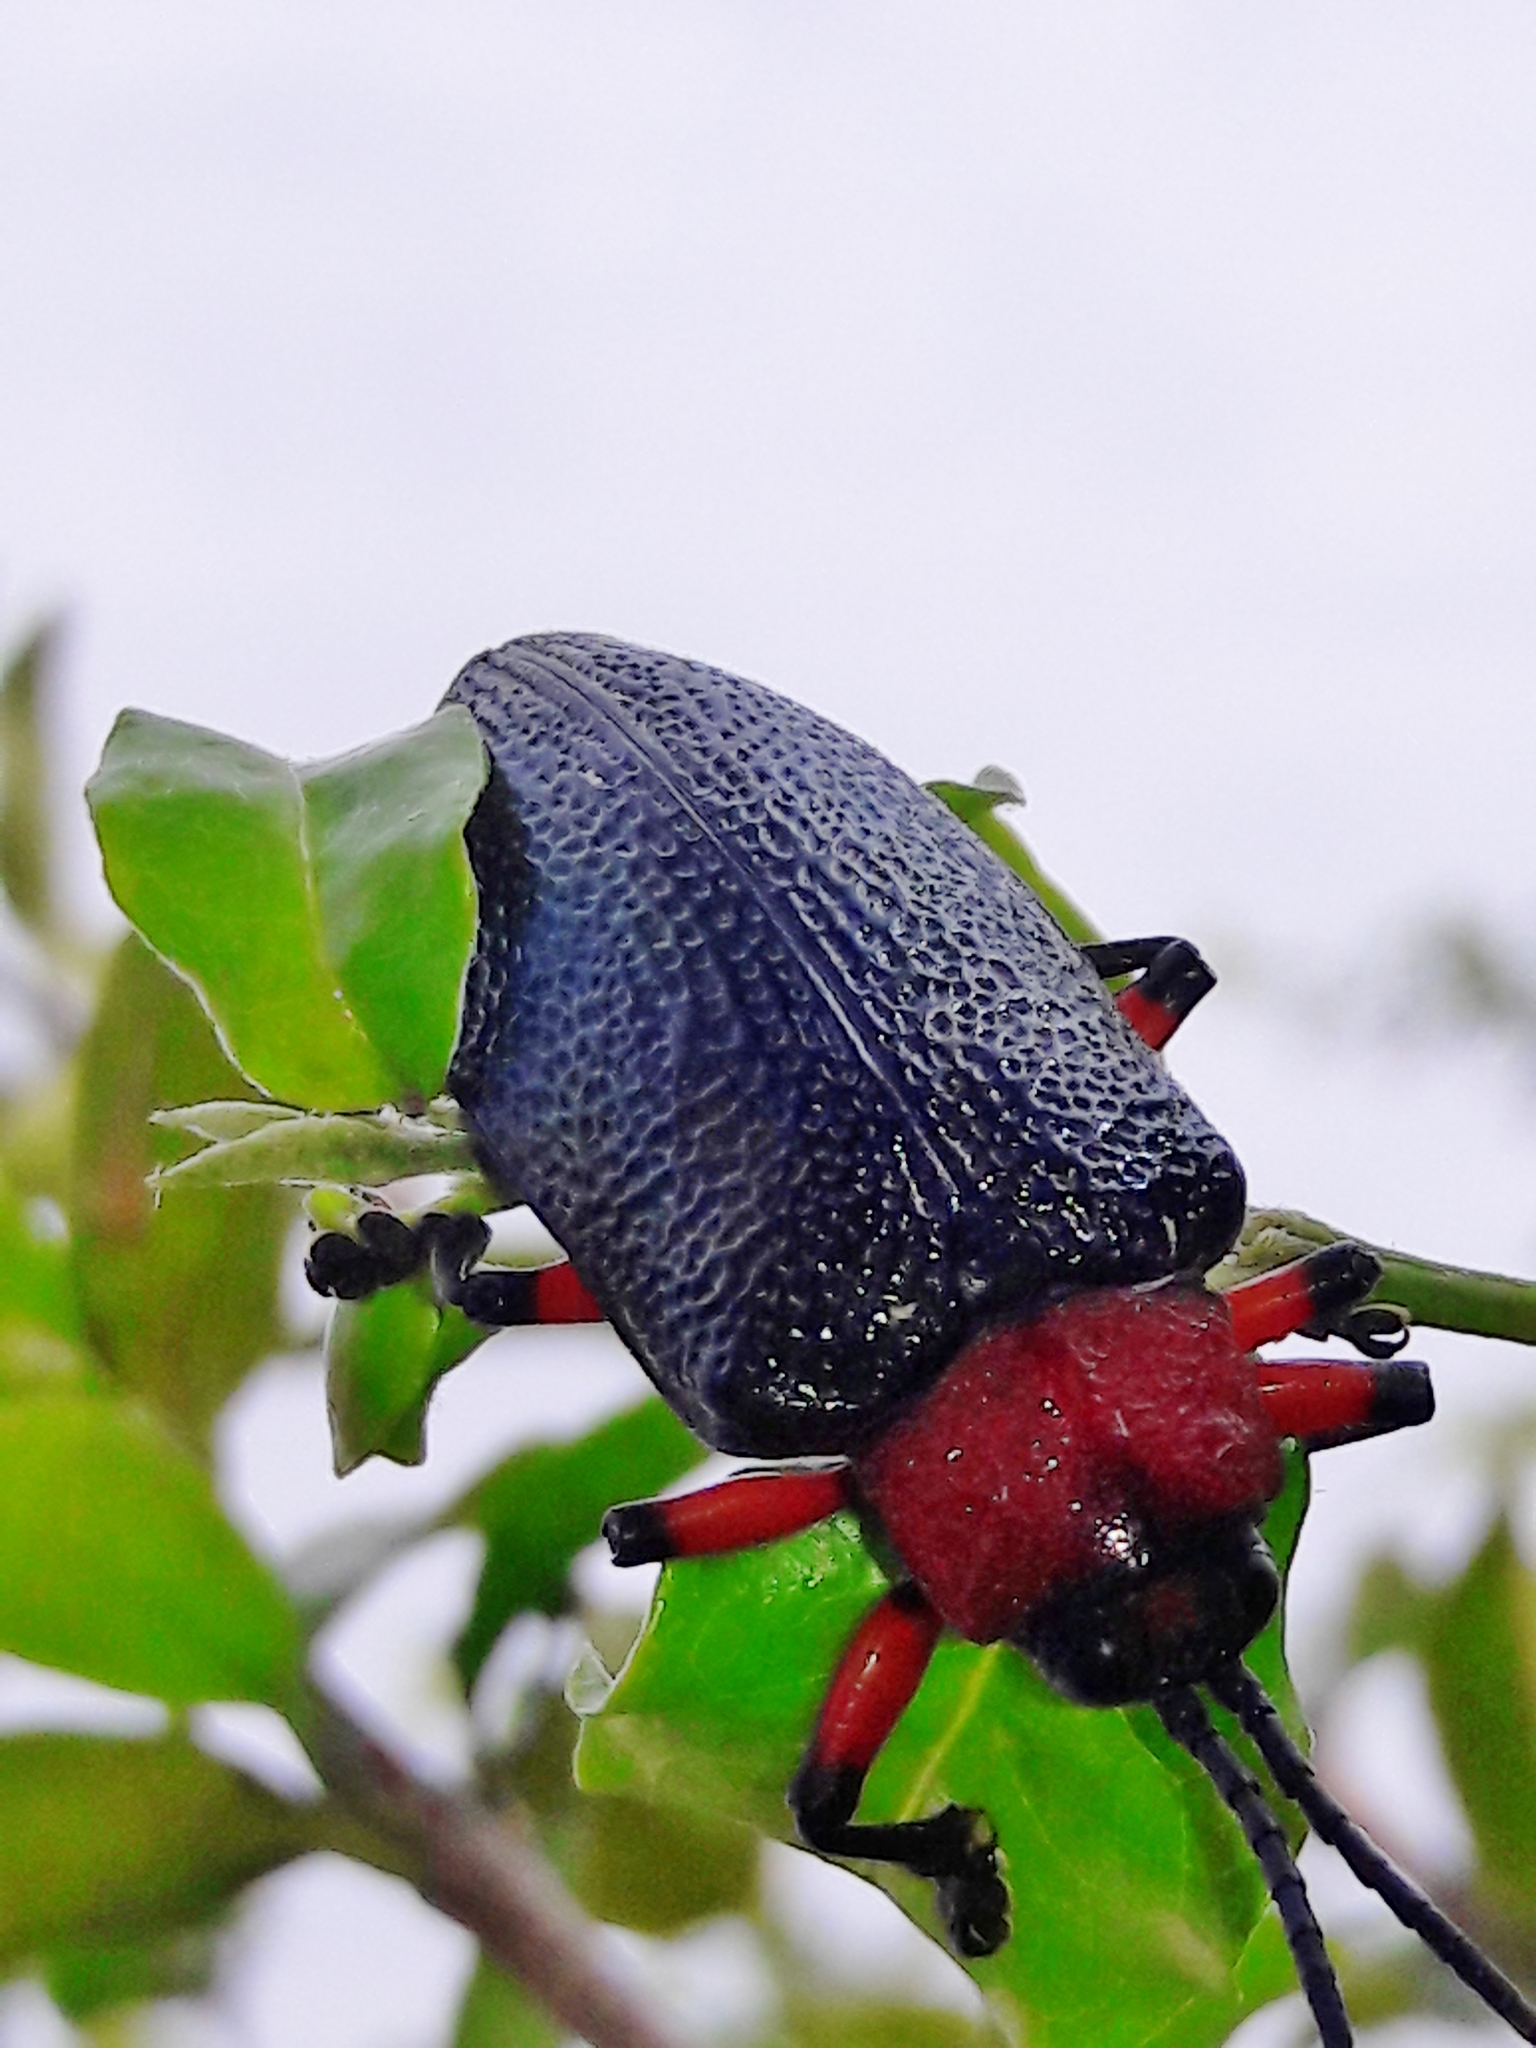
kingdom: Animalia
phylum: Arthropoda
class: Insecta
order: Coleoptera
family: Chrysomelidae
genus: Coraliomela
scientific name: Coraliomela brunnea
